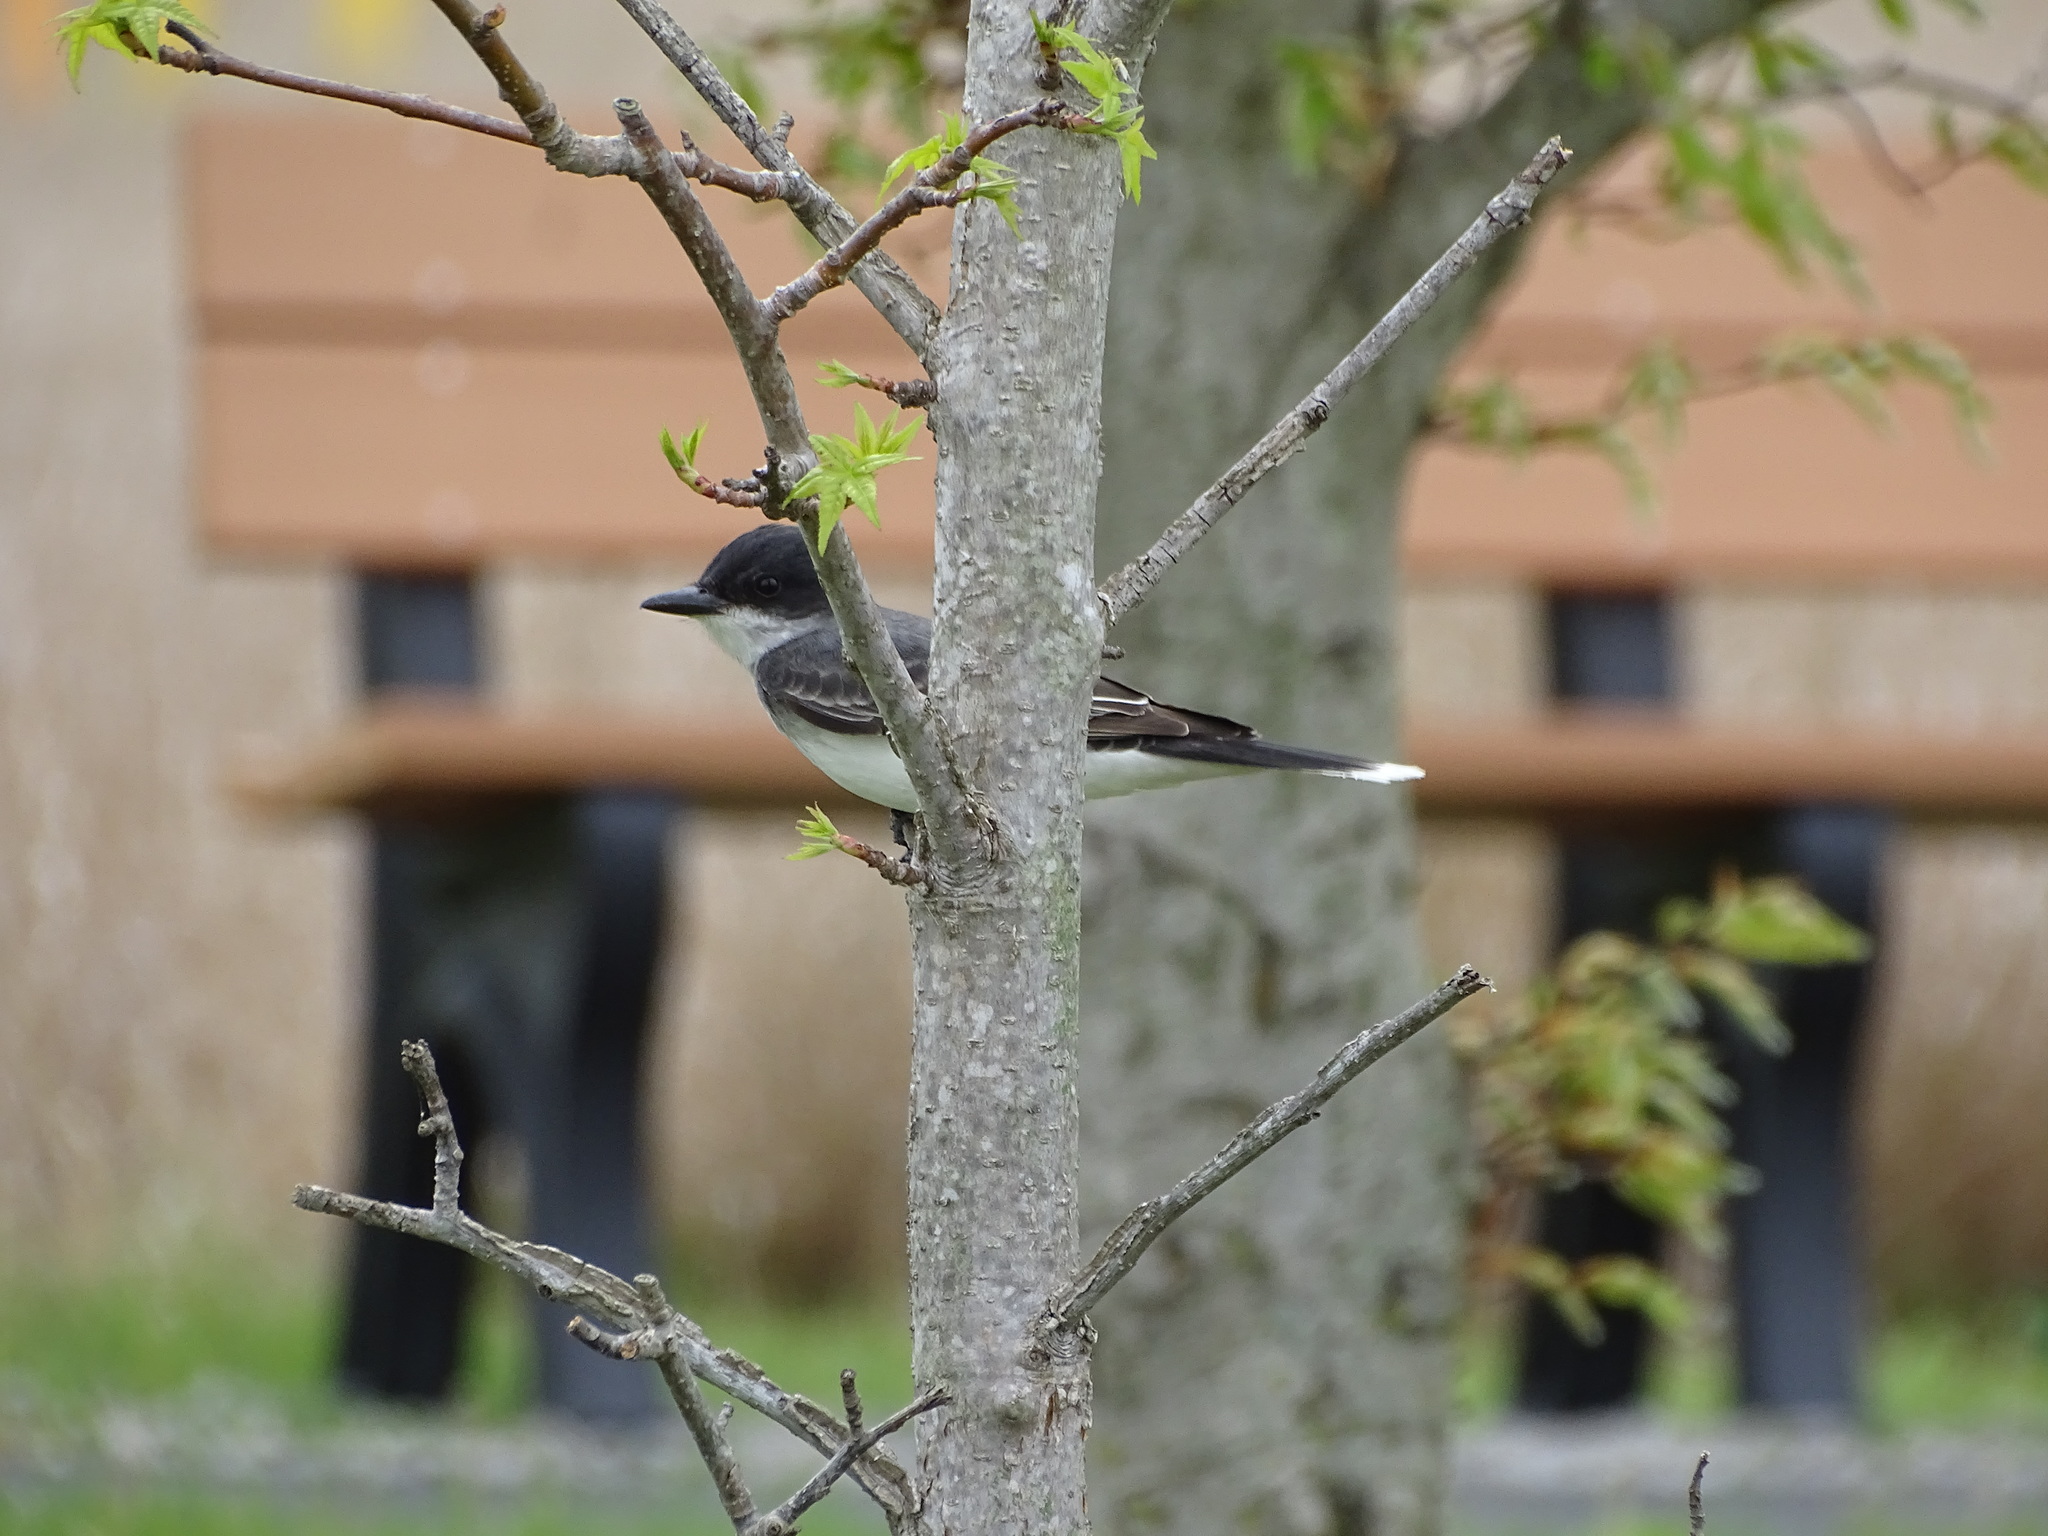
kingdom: Animalia
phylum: Chordata
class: Aves
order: Passeriformes
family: Tyrannidae
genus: Tyrannus
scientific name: Tyrannus tyrannus
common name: Eastern kingbird
